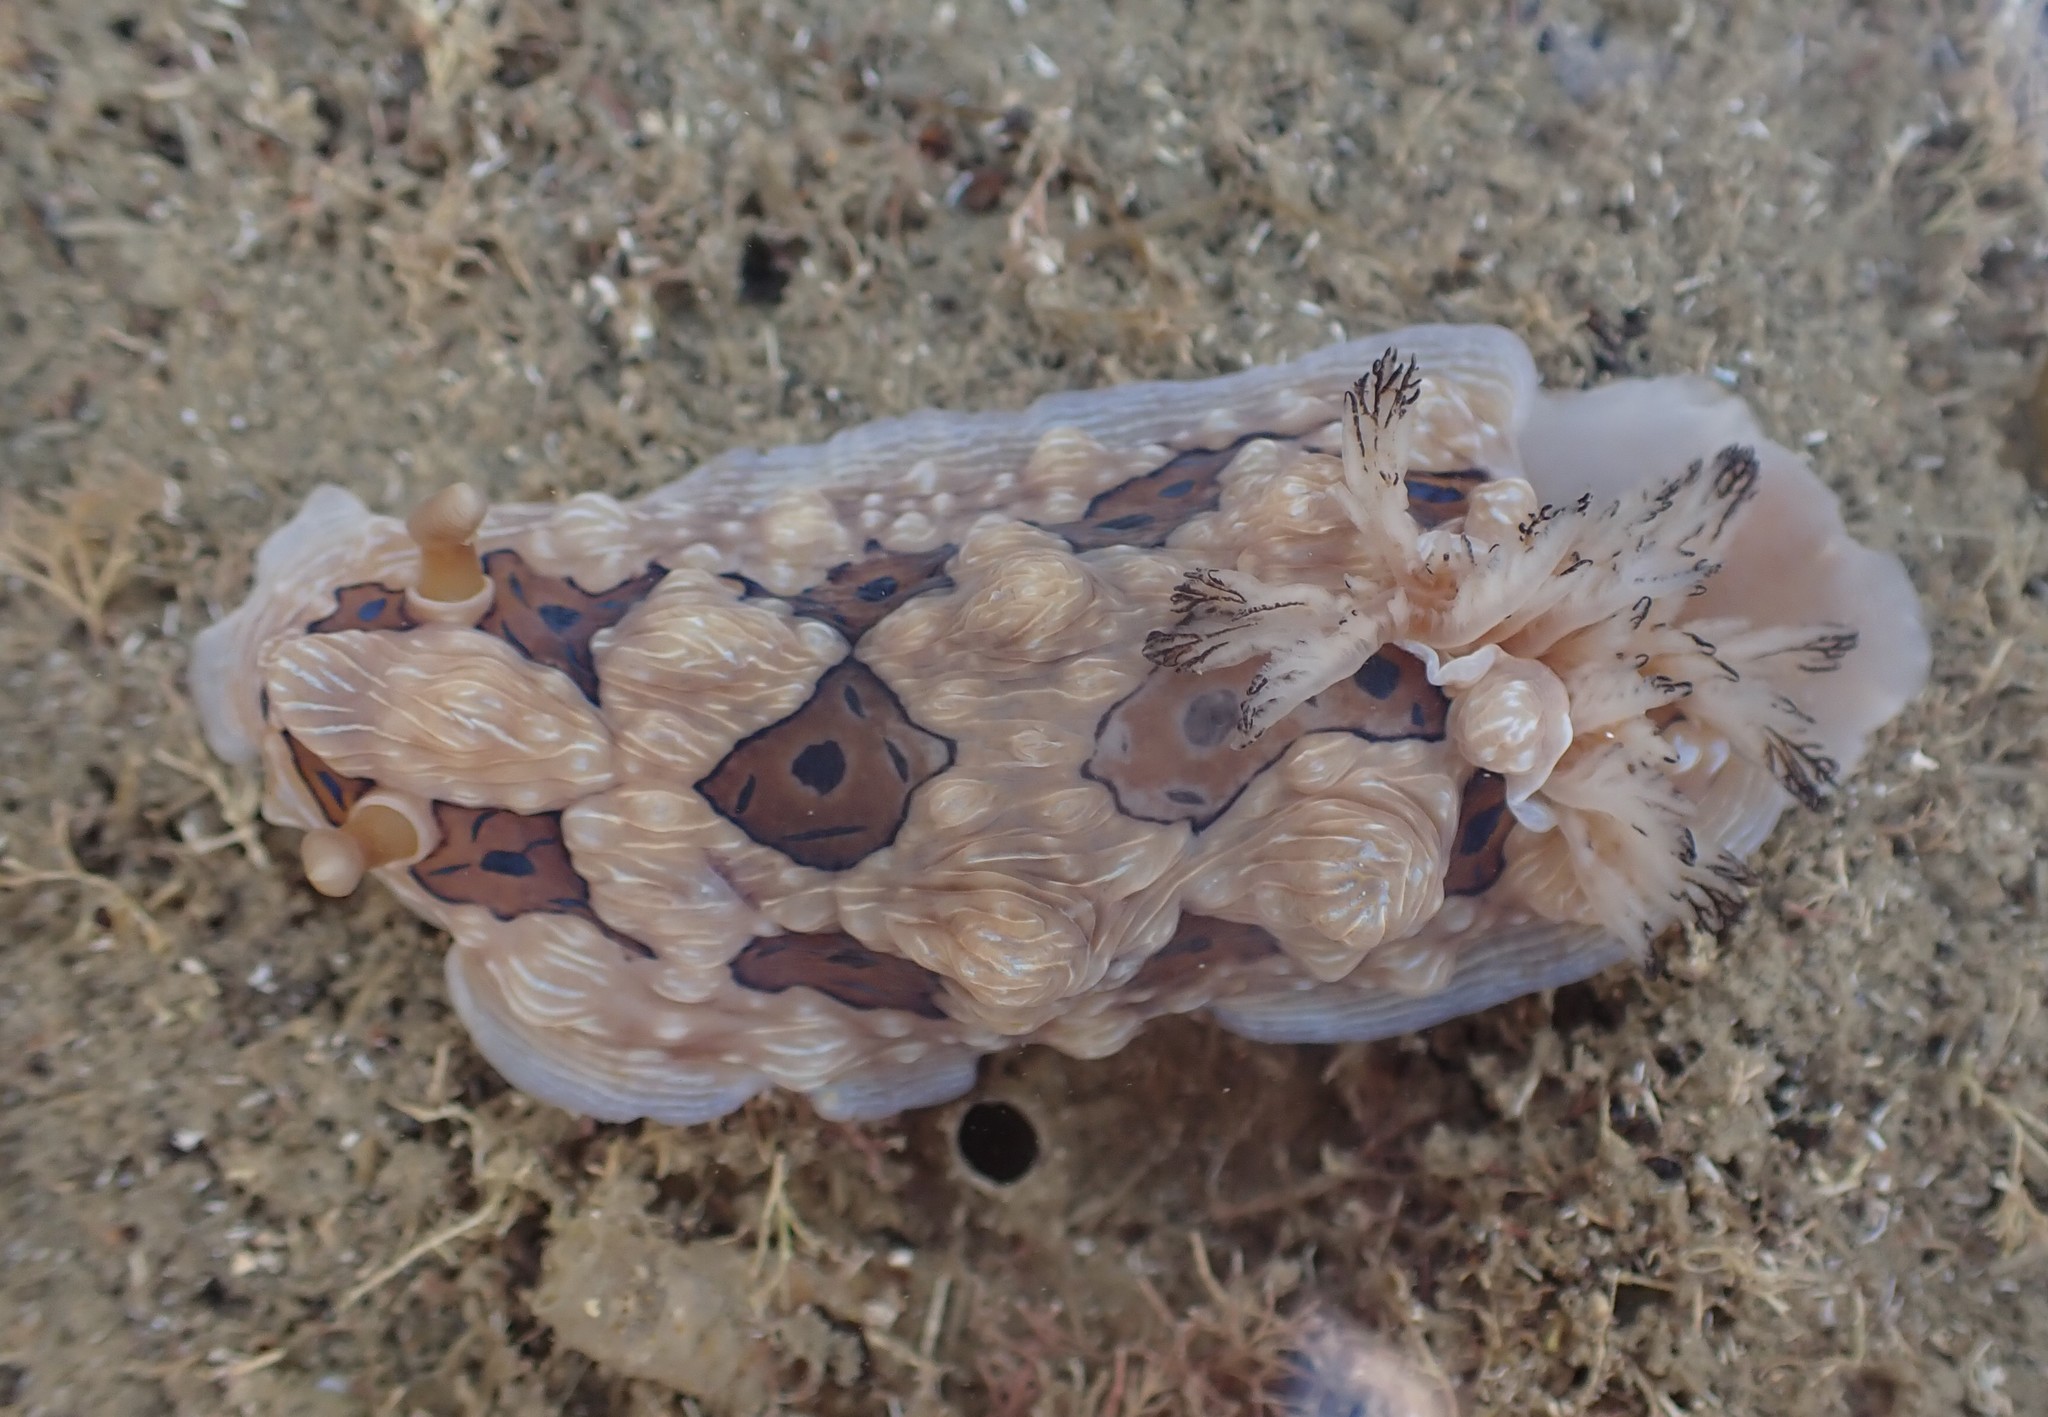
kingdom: Animalia
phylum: Mollusca
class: Gastropoda
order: Nudibranchia
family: Dendrodorididae
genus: Dendrodoris
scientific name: Dendrodoris krusensternii
